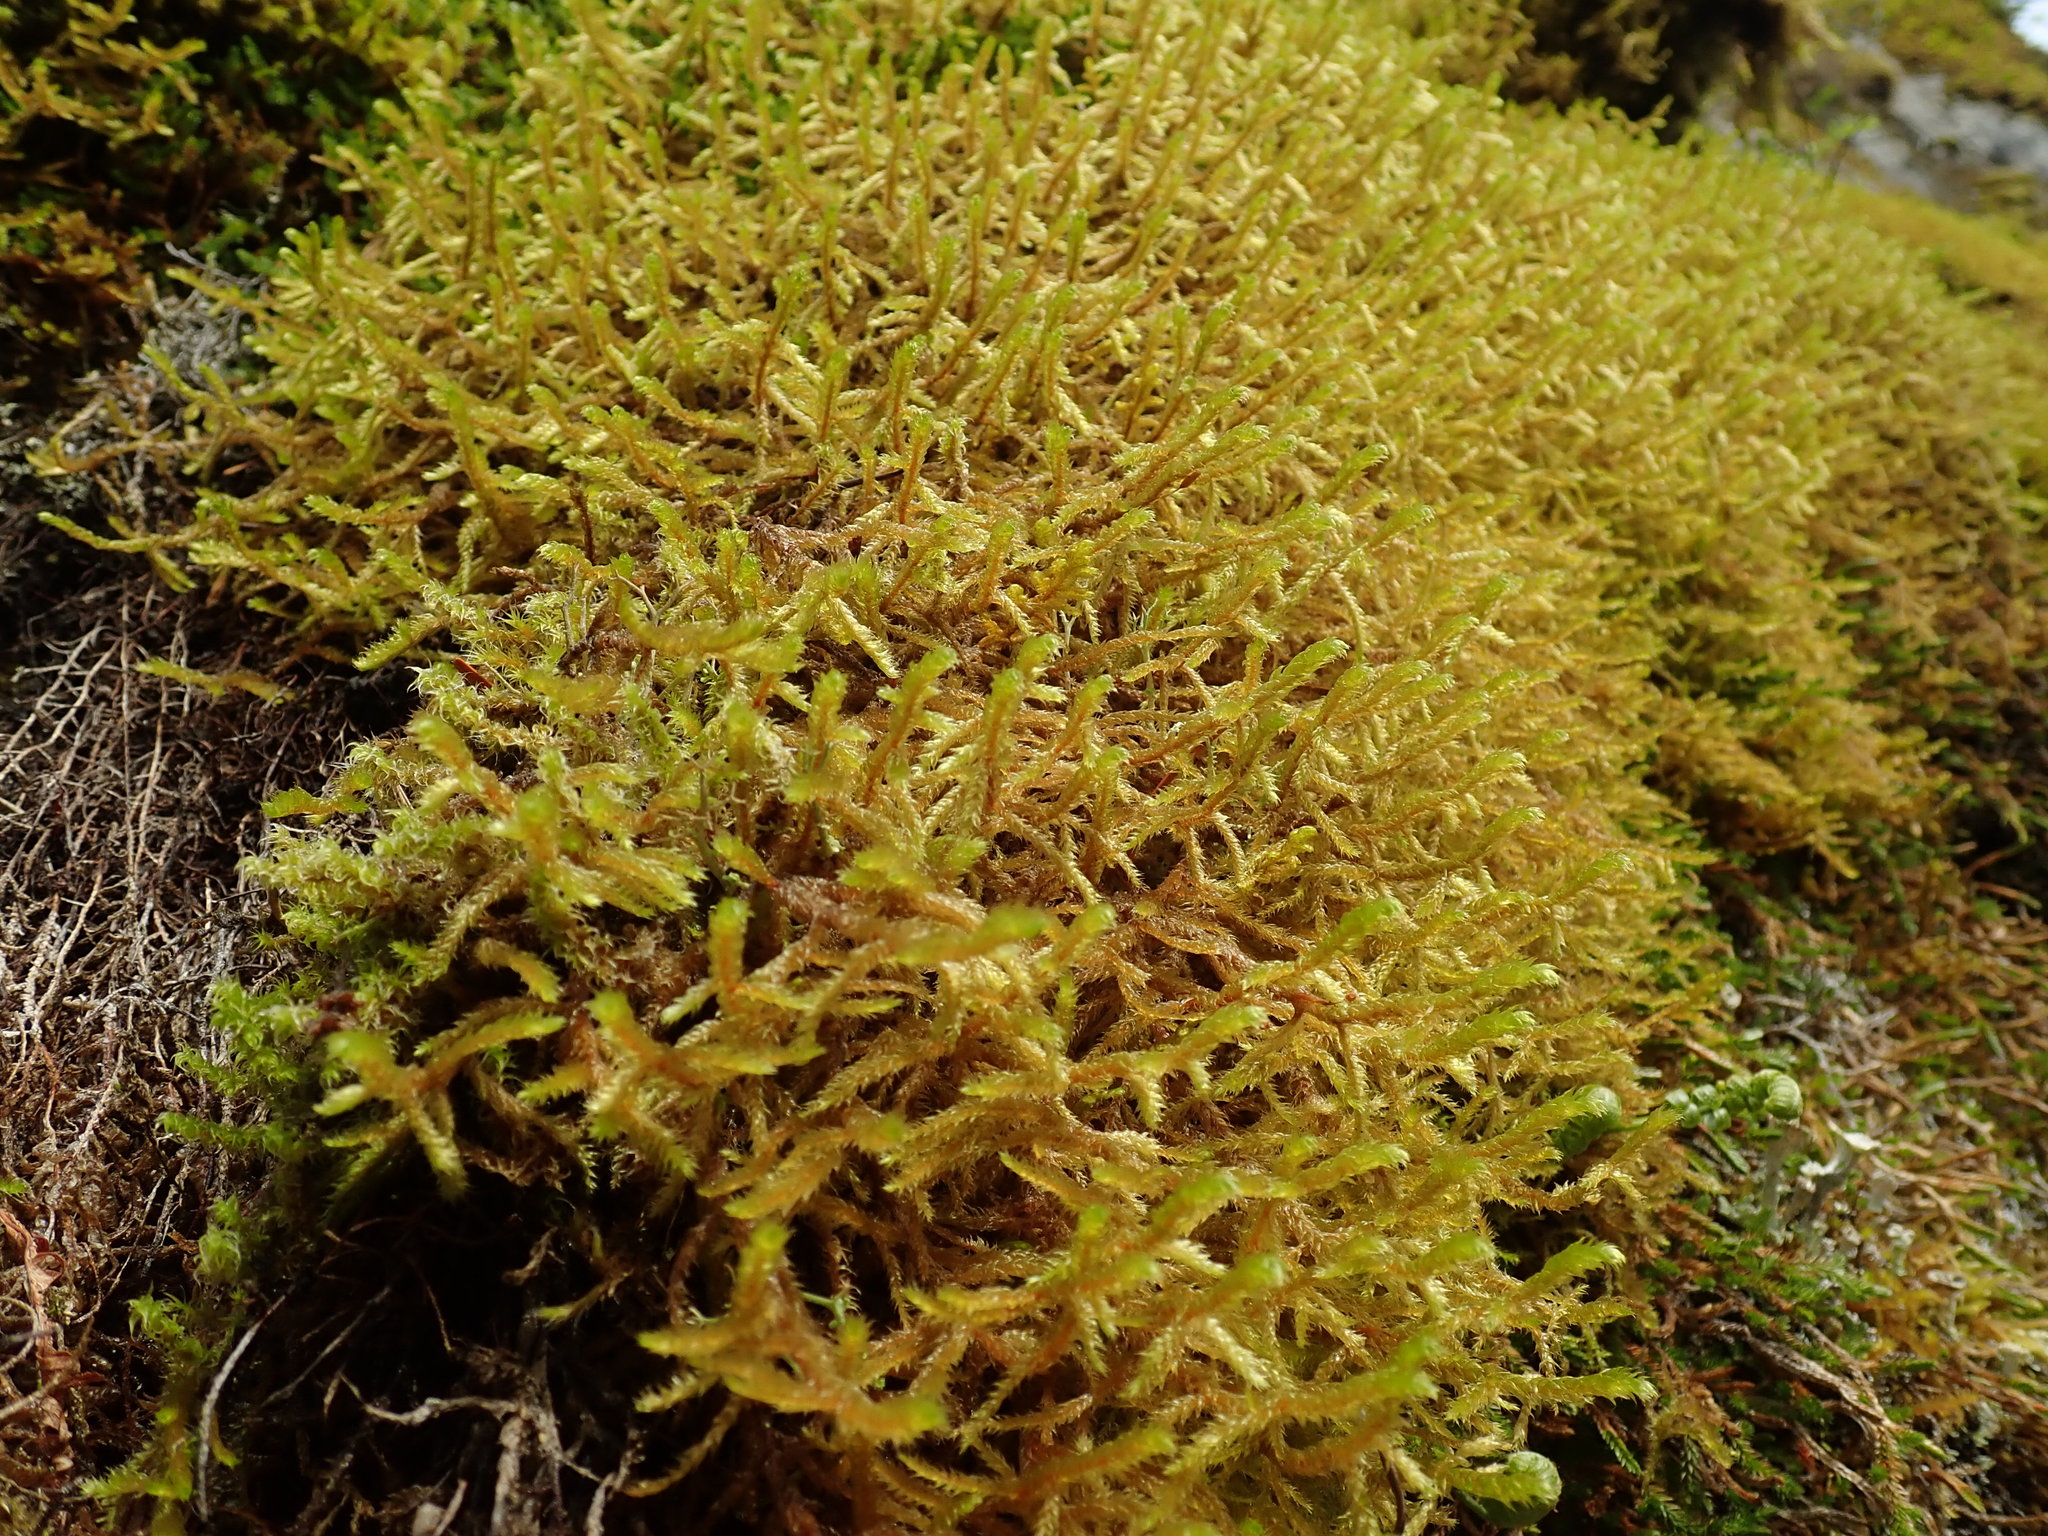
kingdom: Plantae
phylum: Bryophyta
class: Bryopsida
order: Hypnales
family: Antitrichiaceae
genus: Antitrichia
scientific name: Antitrichia curtipendula
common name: Pendulous wing-moss
